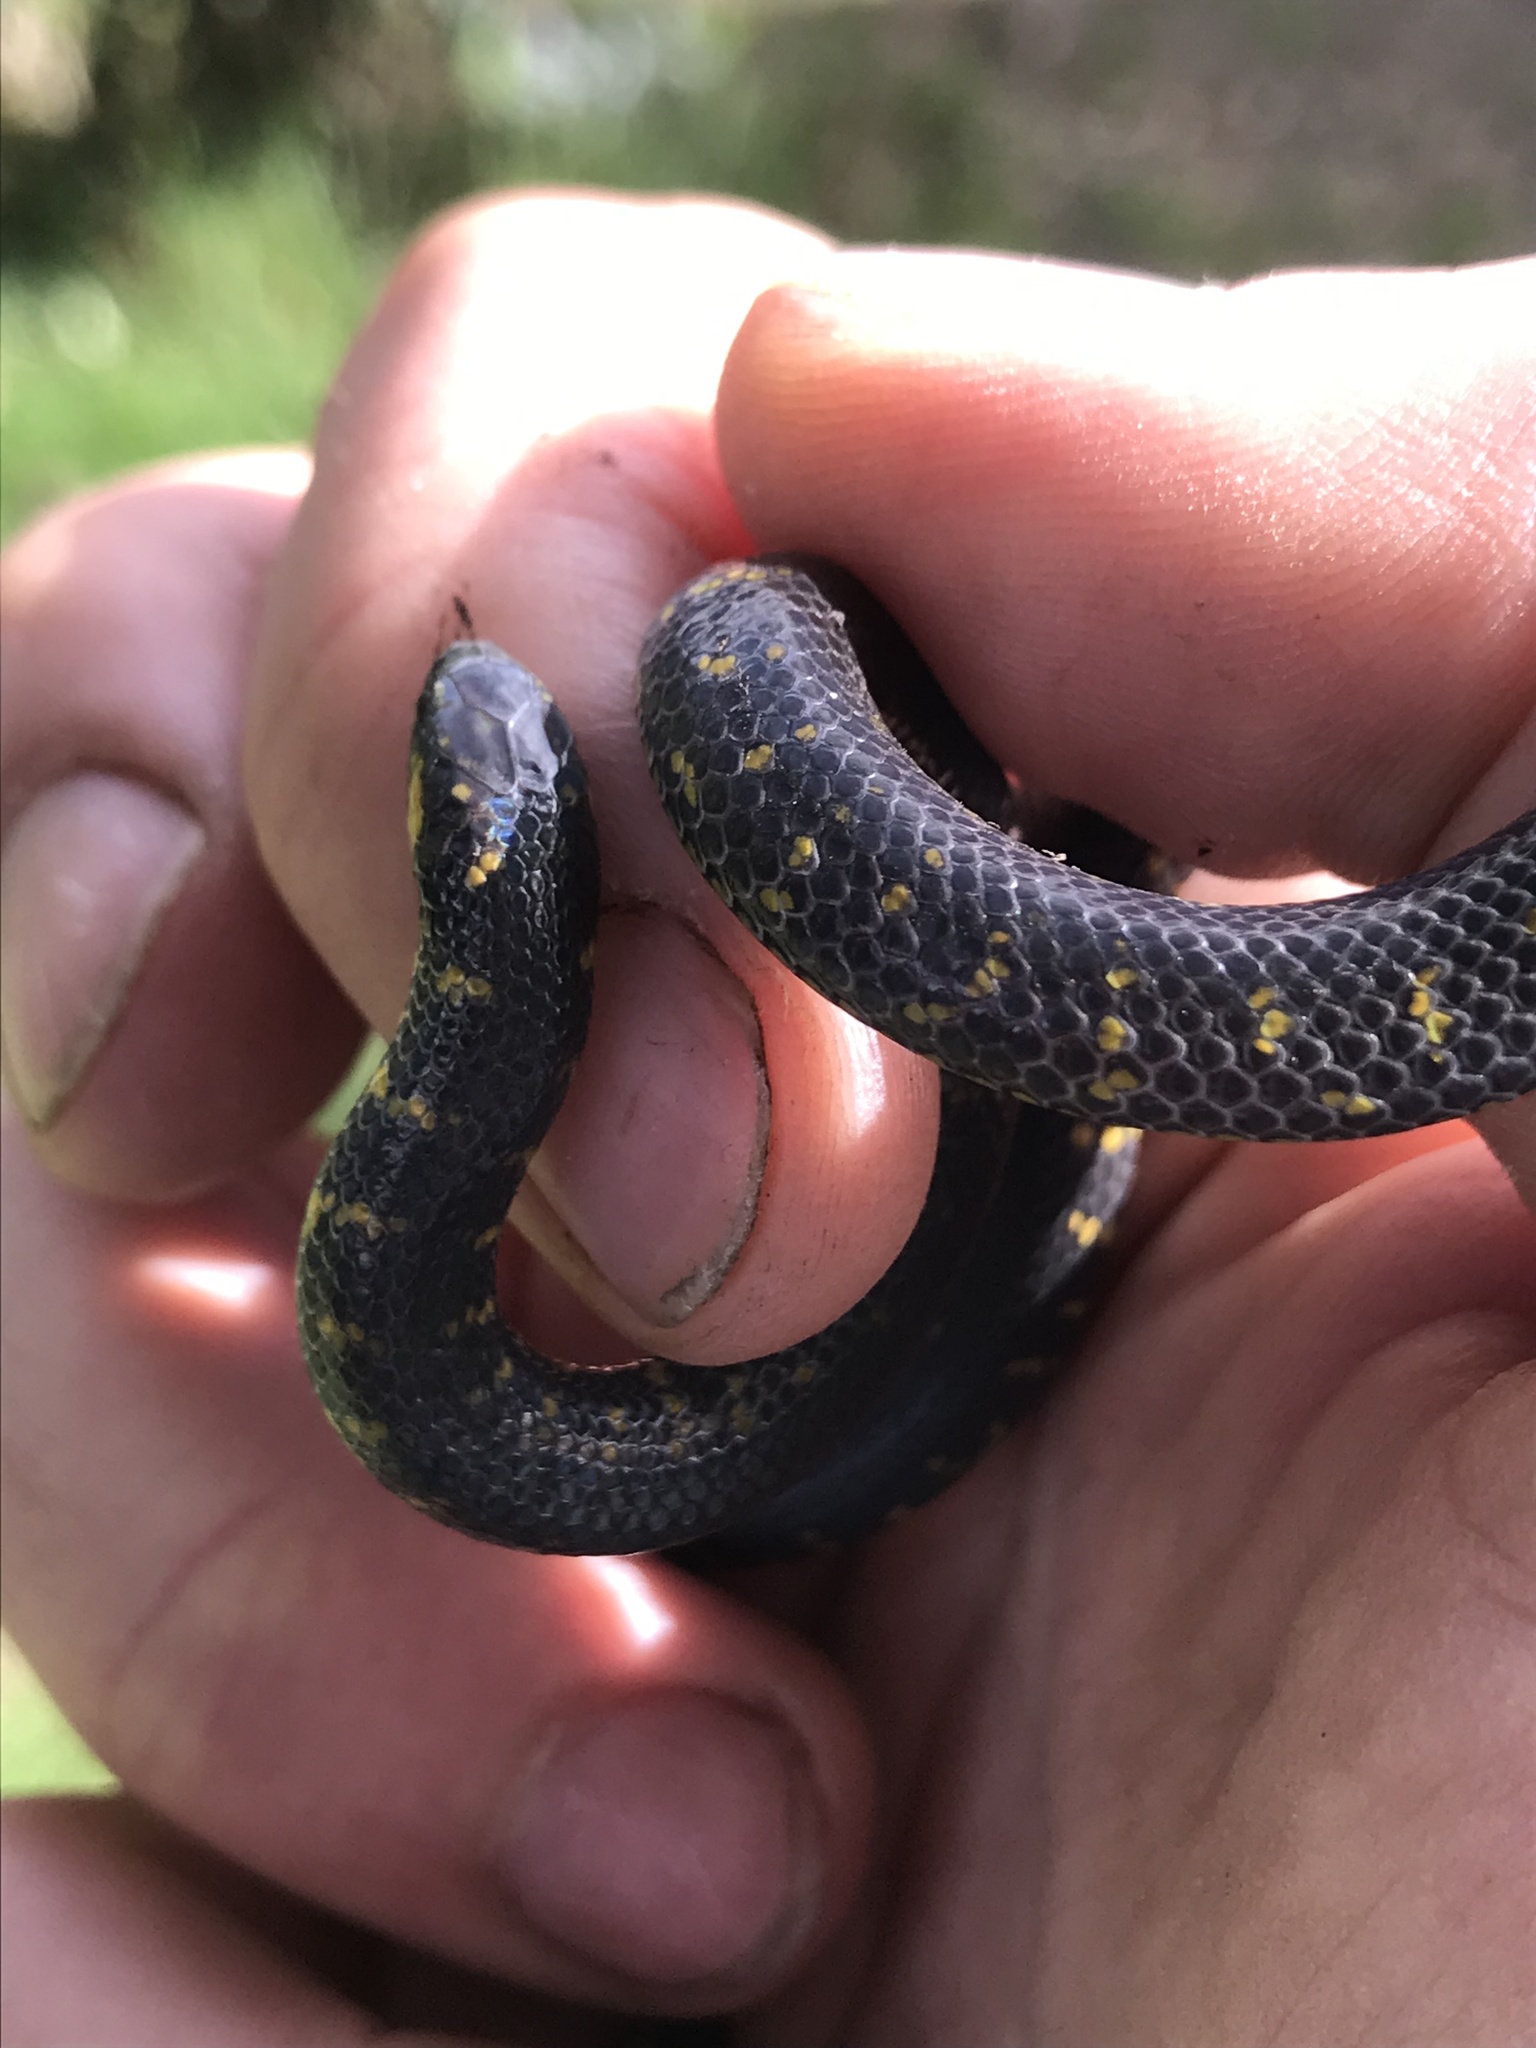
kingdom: Animalia
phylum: Chordata
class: Squamata
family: Colubridae
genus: Atractus
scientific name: Atractus crassicaudatus
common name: Thickhead ground snake
